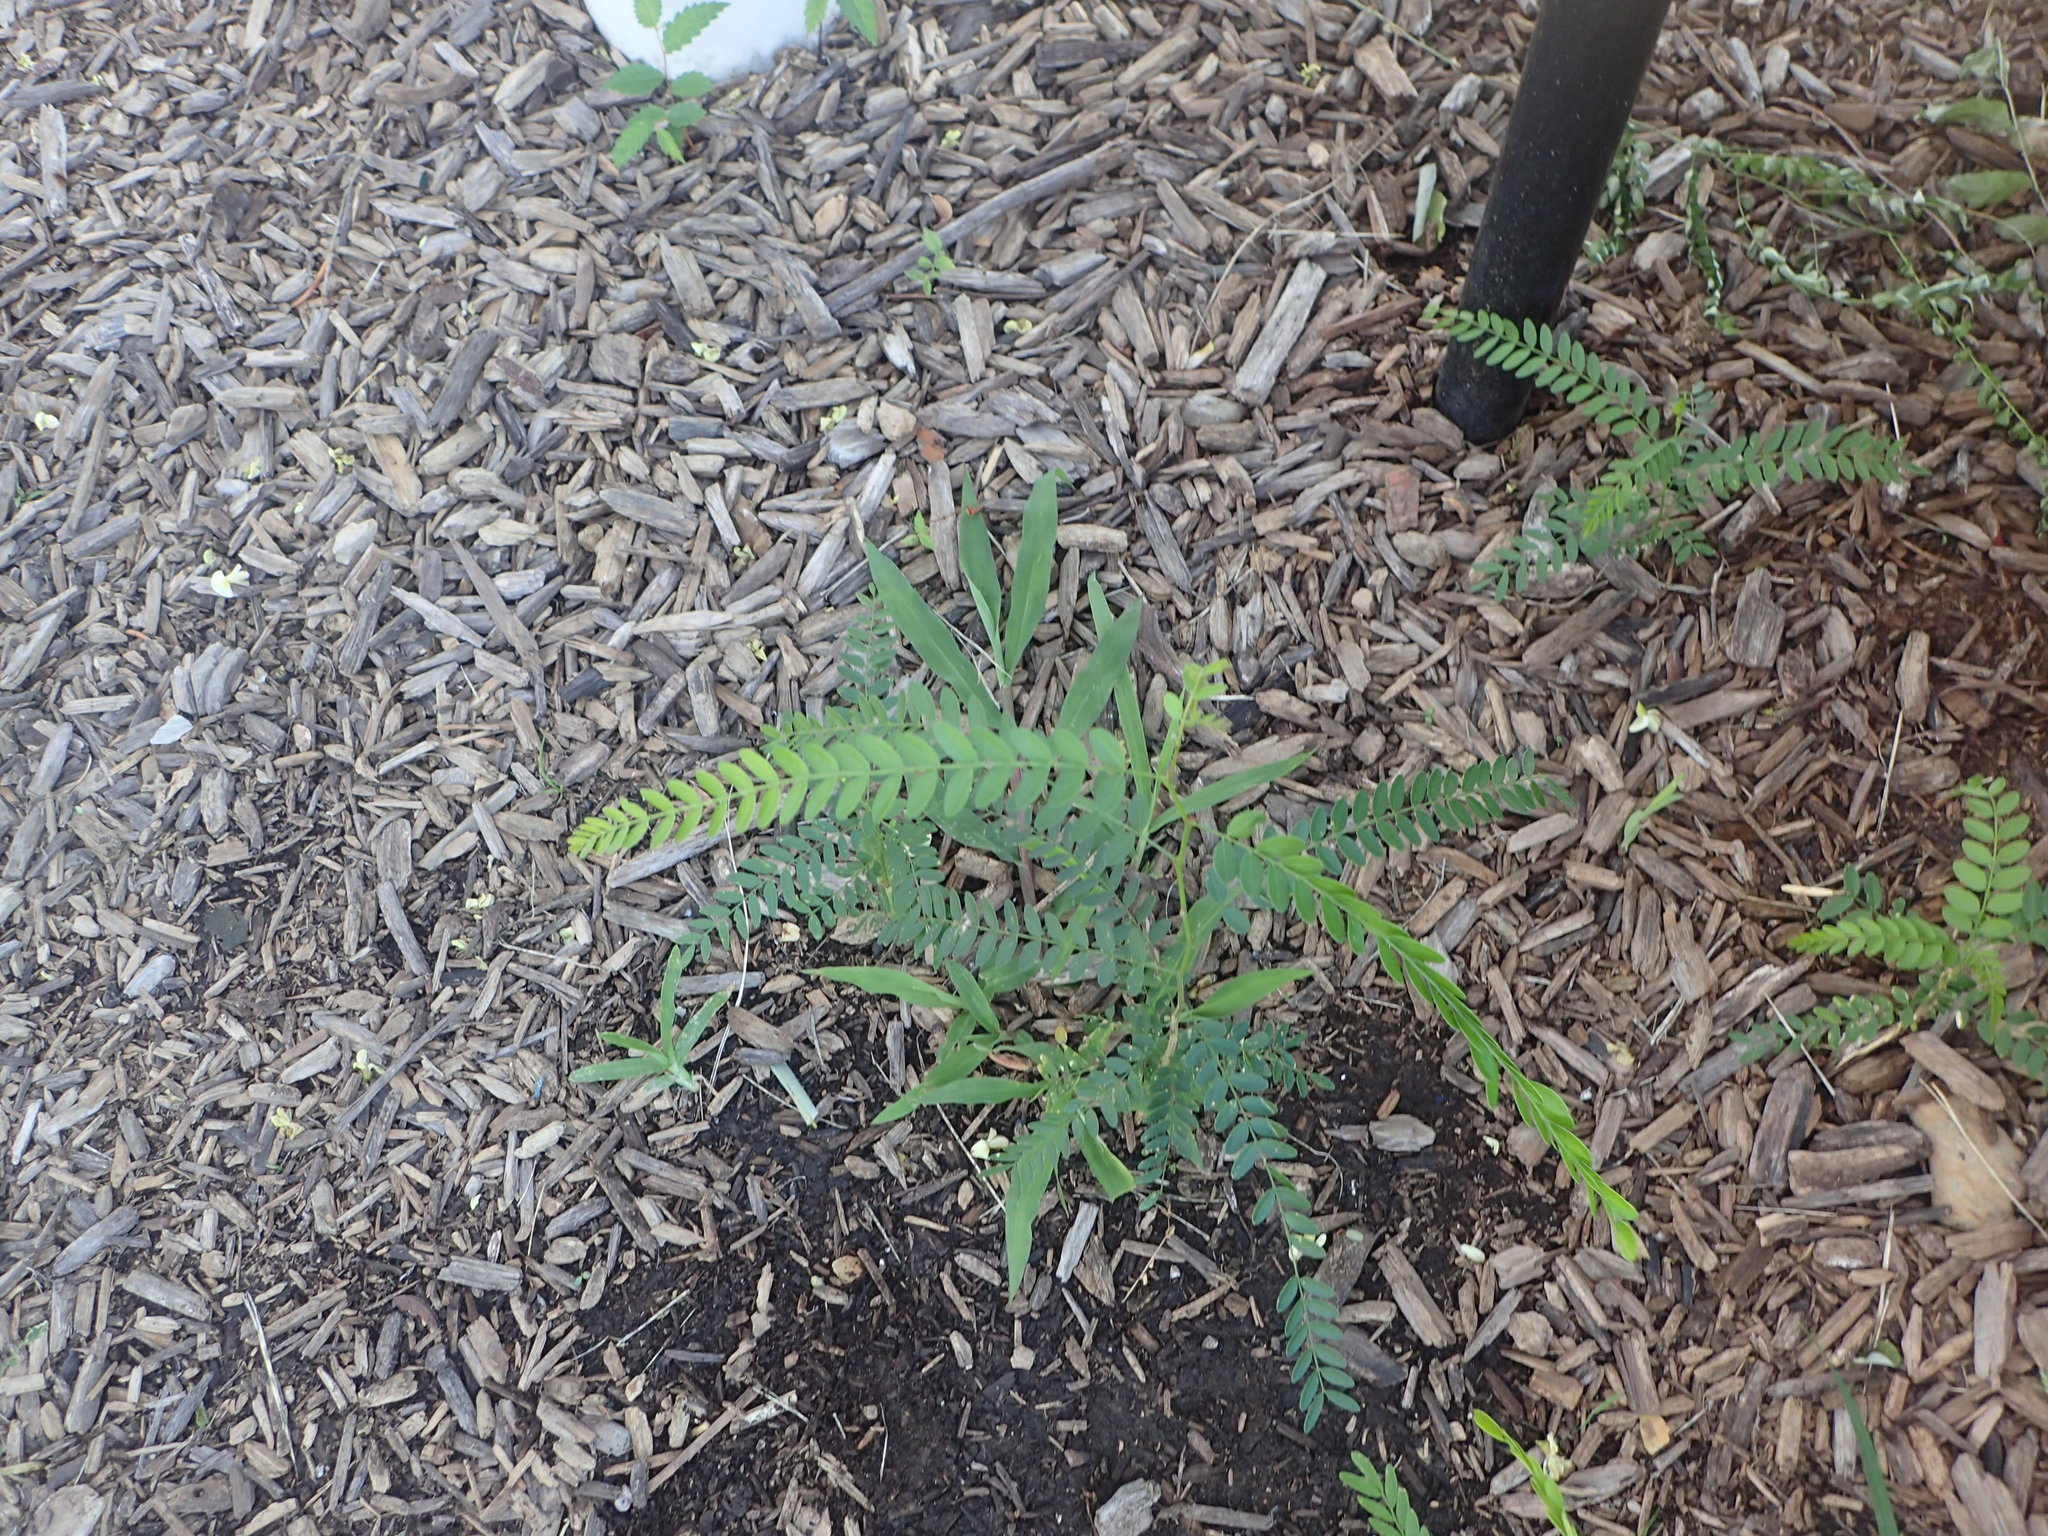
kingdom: Plantae
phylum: Tracheophyta
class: Magnoliopsida
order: Fabales
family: Fabaceae
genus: Gleditsia
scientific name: Gleditsia triacanthos
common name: Common honeylocust
